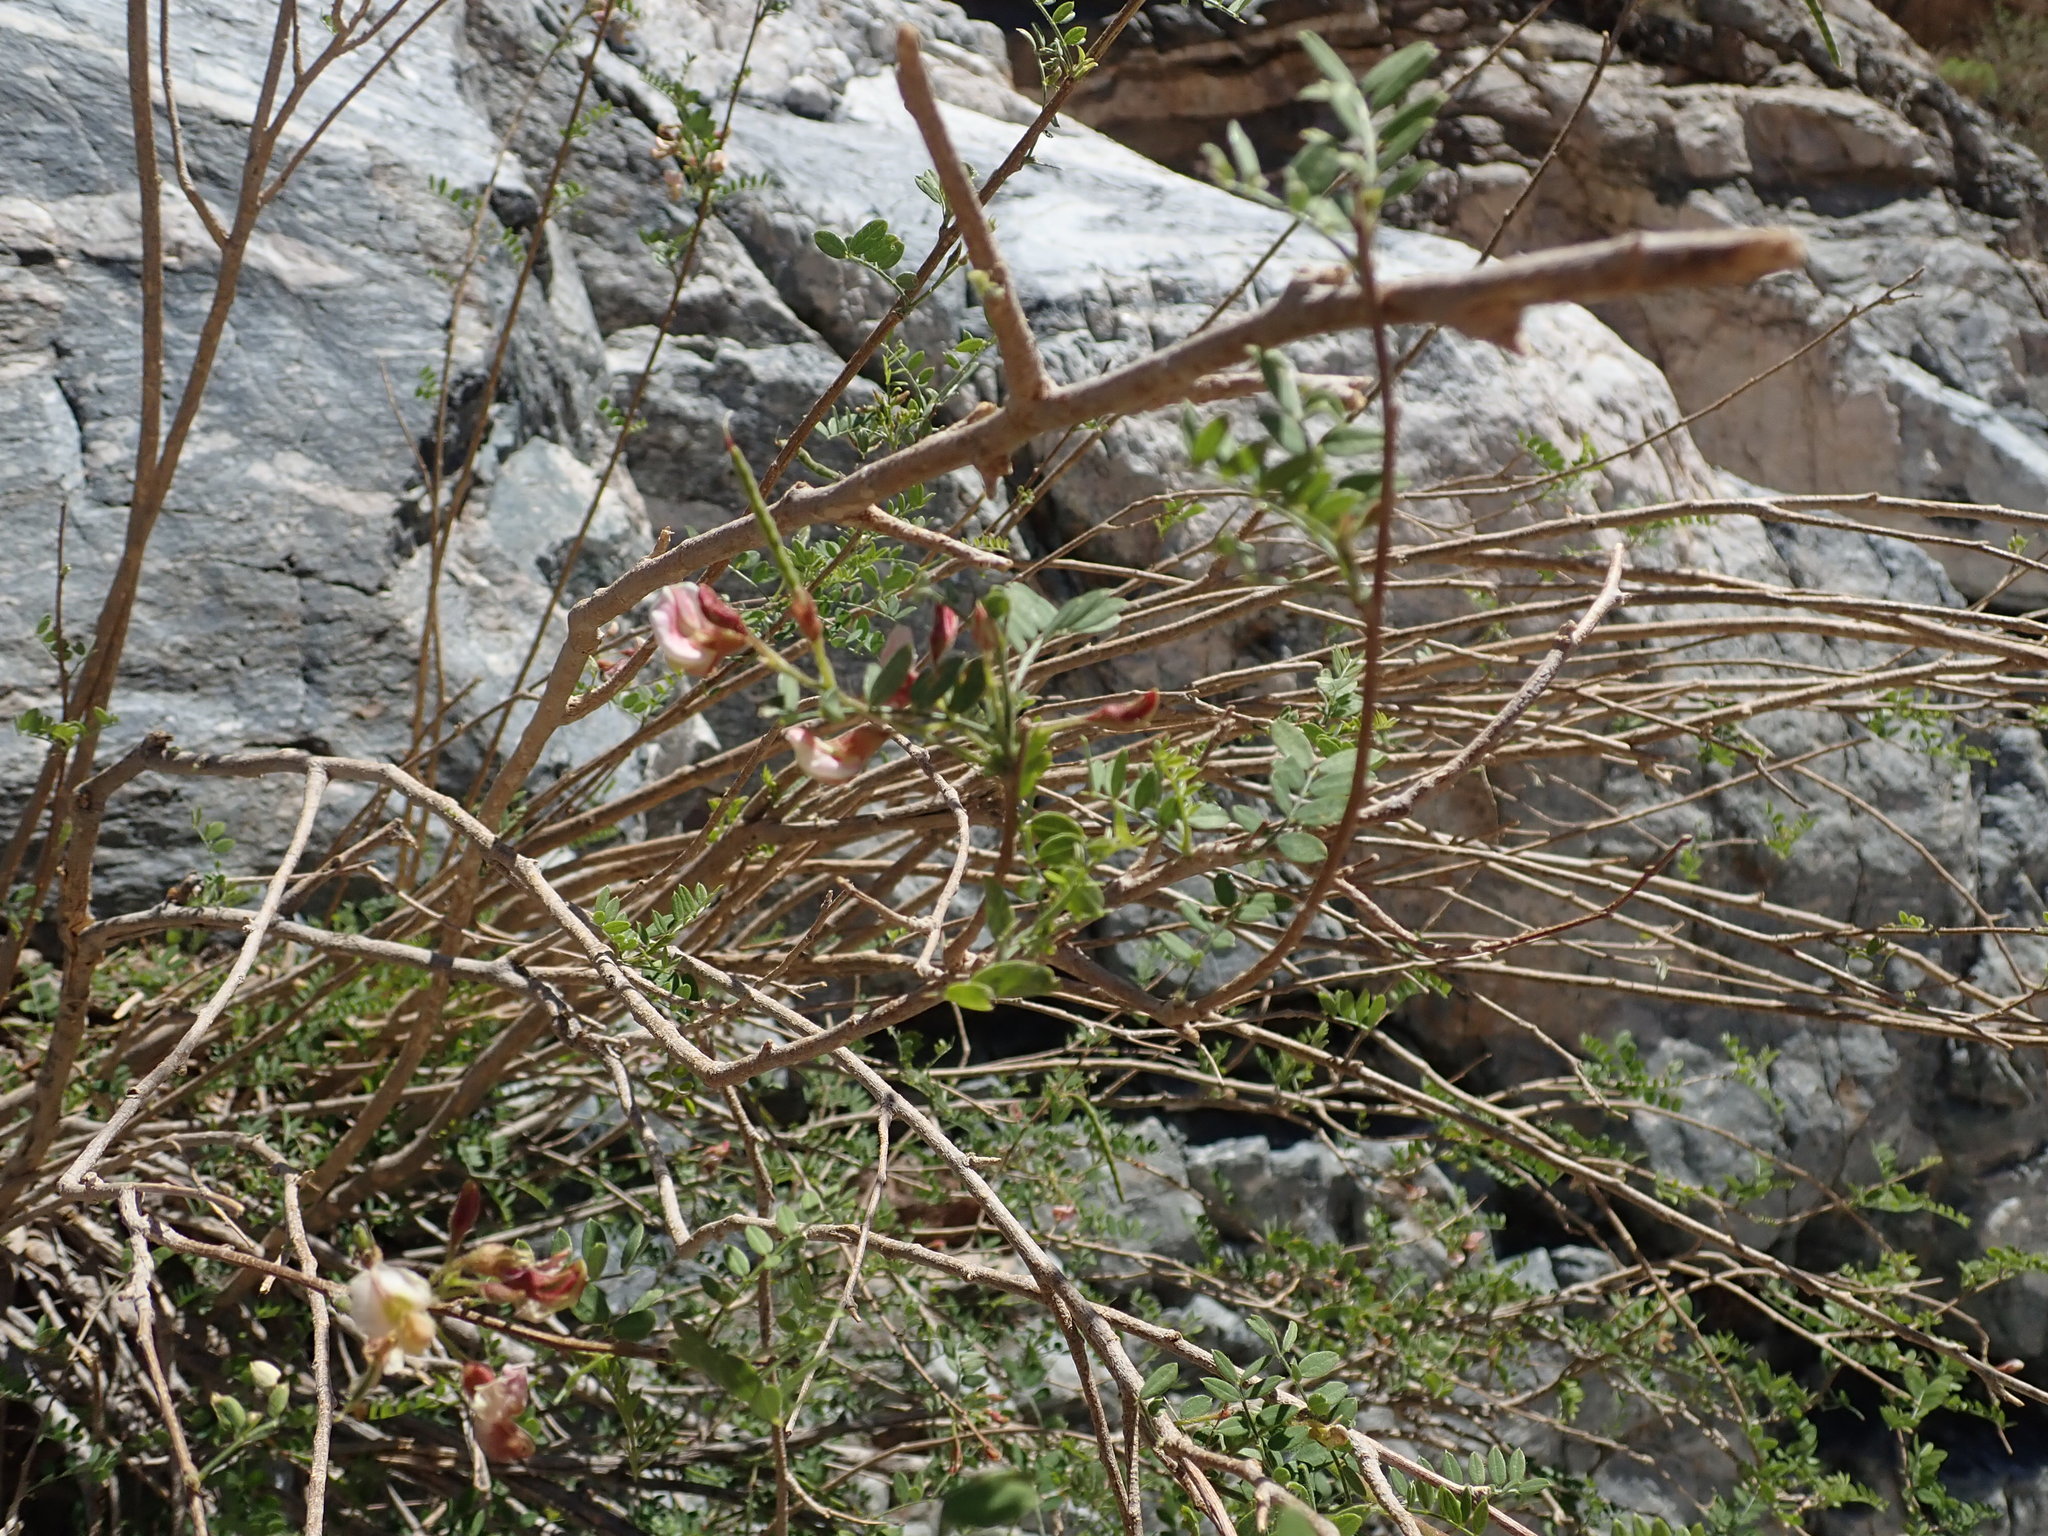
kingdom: Plantae
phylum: Tracheophyta
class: Magnoliopsida
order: Fabales
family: Fabaceae
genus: Coursetia
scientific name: Coursetia glandulosa
